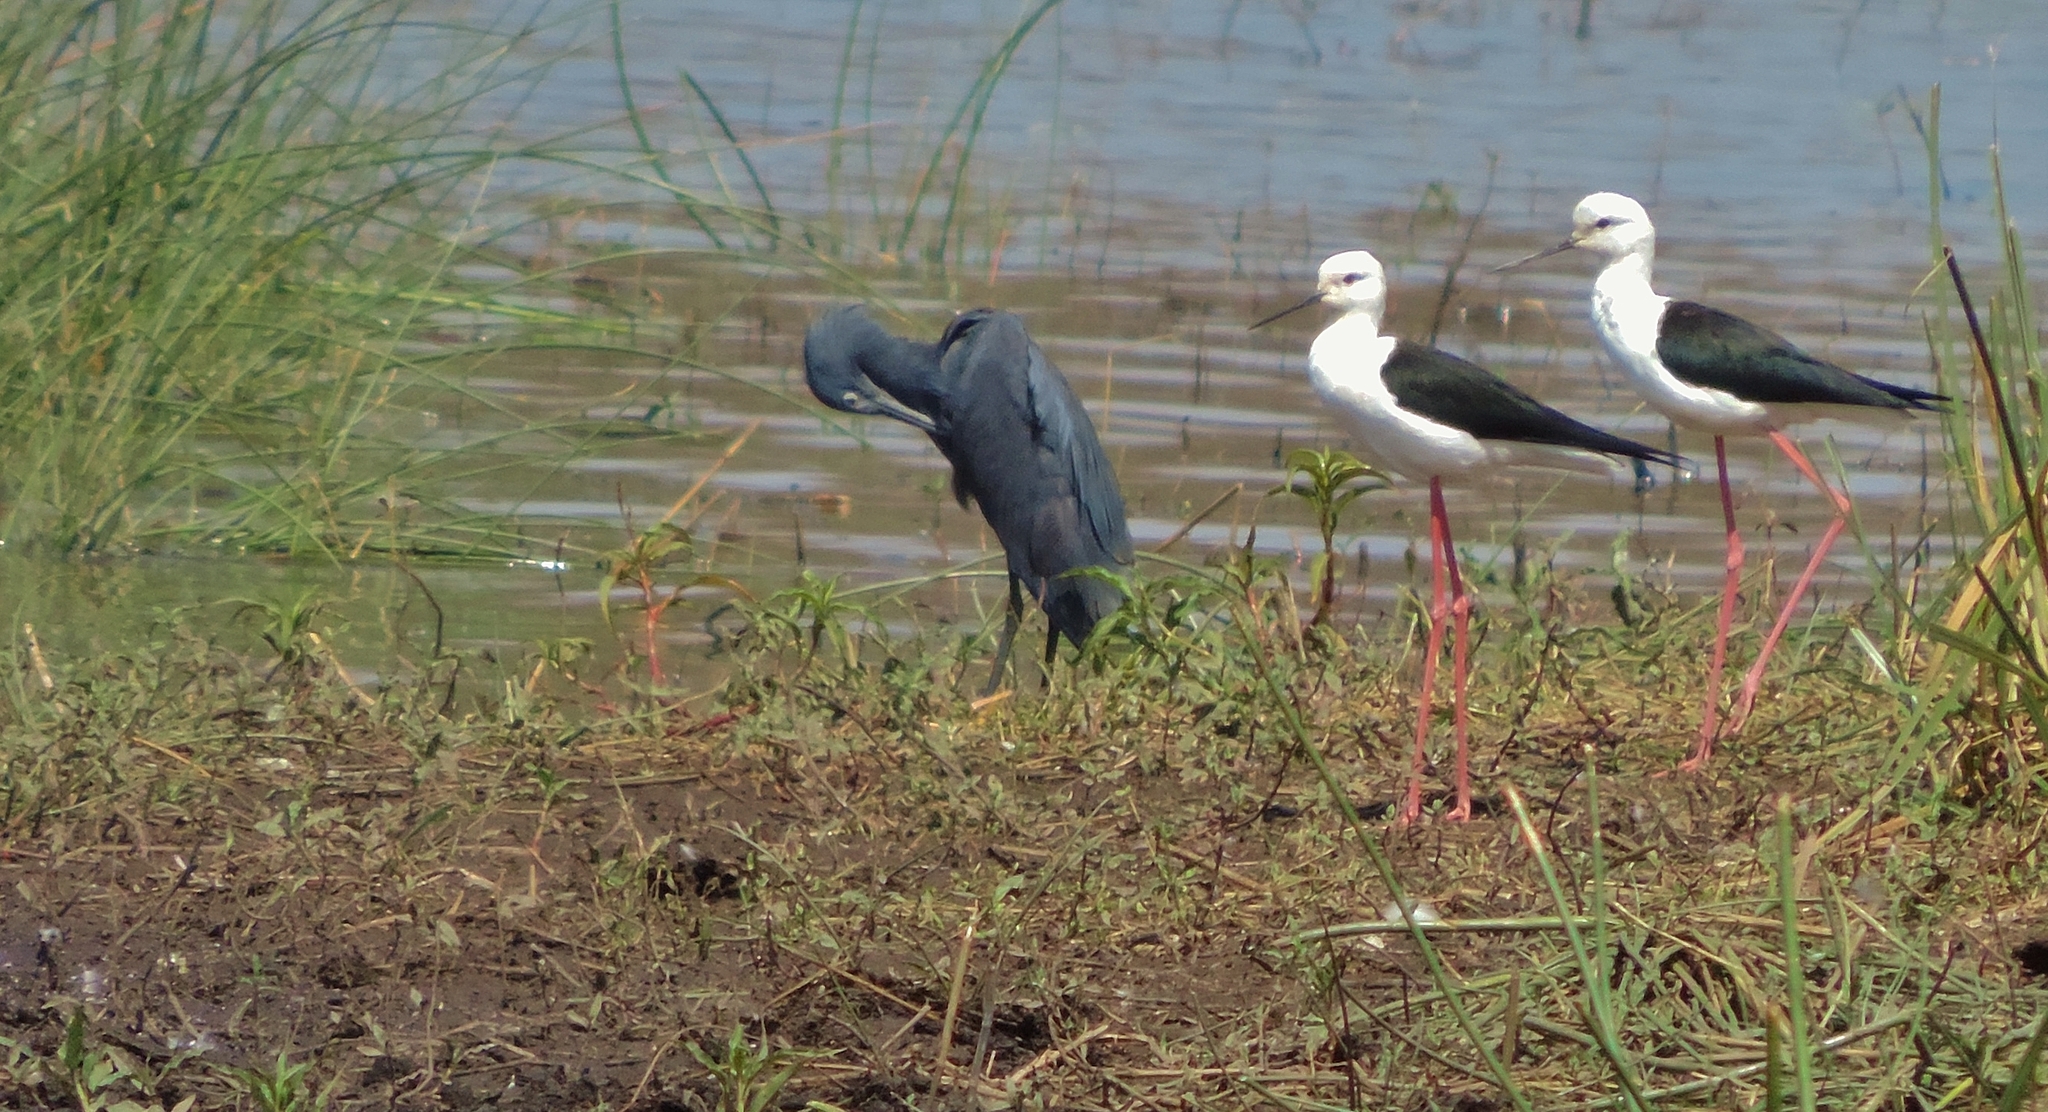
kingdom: Animalia
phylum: Chordata
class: Aves
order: Charadriiformes
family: Recurvirostridae
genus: Himantopus
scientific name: Himantopus himantopus
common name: Black-winged stilt
